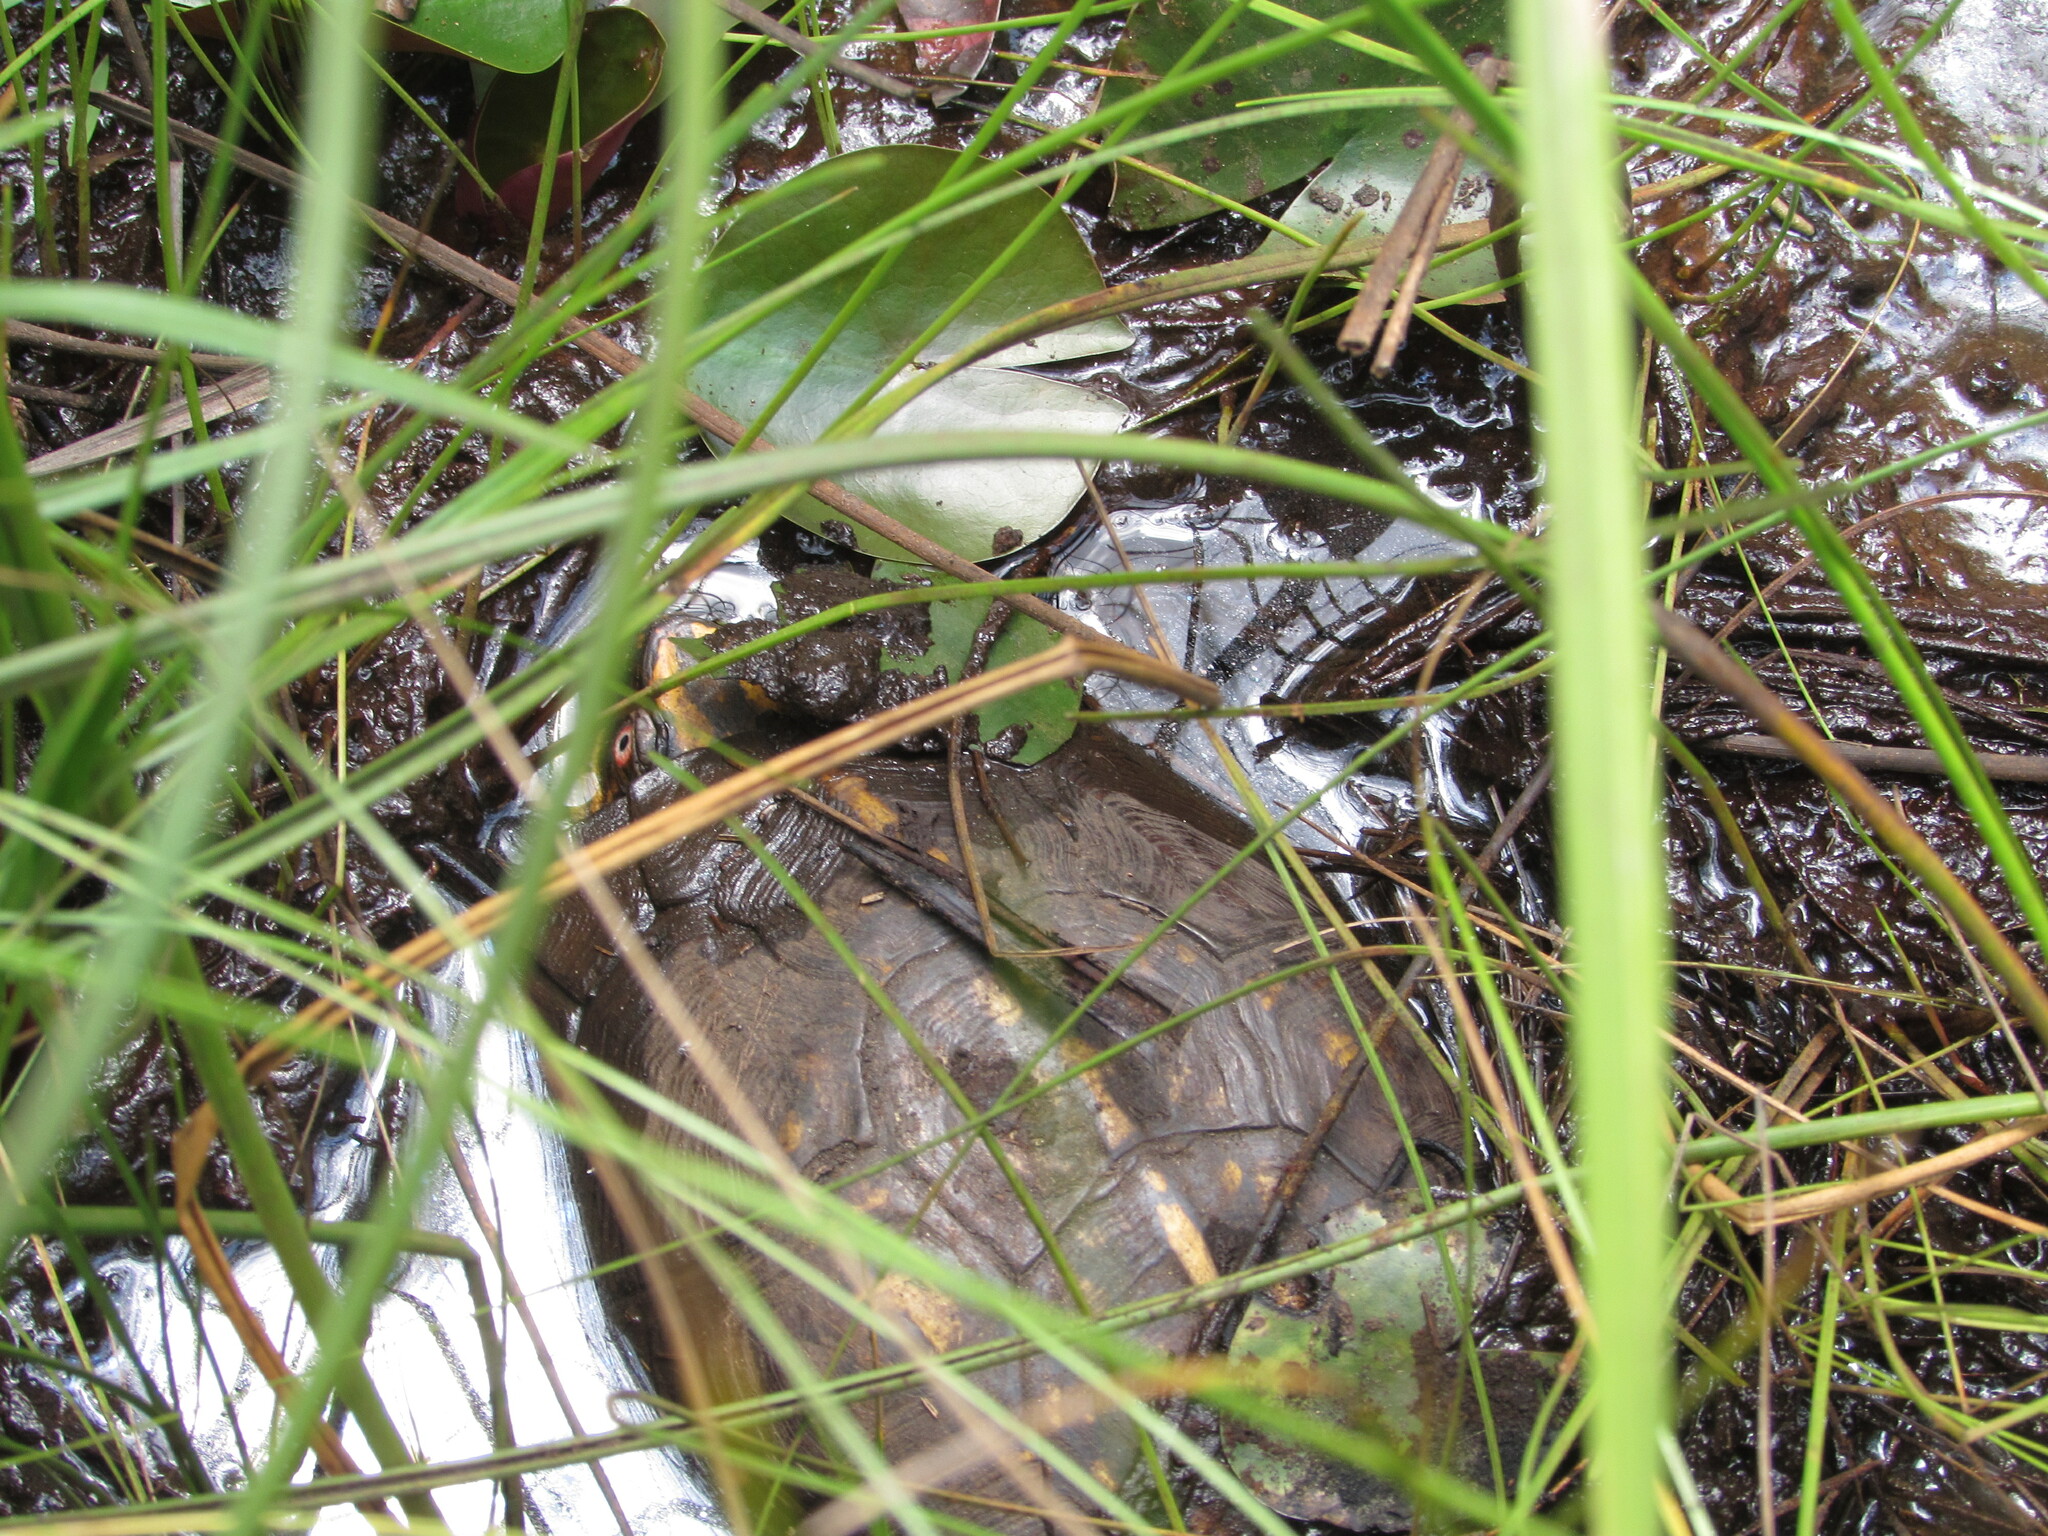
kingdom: Animalia
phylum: Chordata
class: Testudines
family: Emydidae
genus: Terrapene
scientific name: Terrapene carolina
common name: Common box turtle
